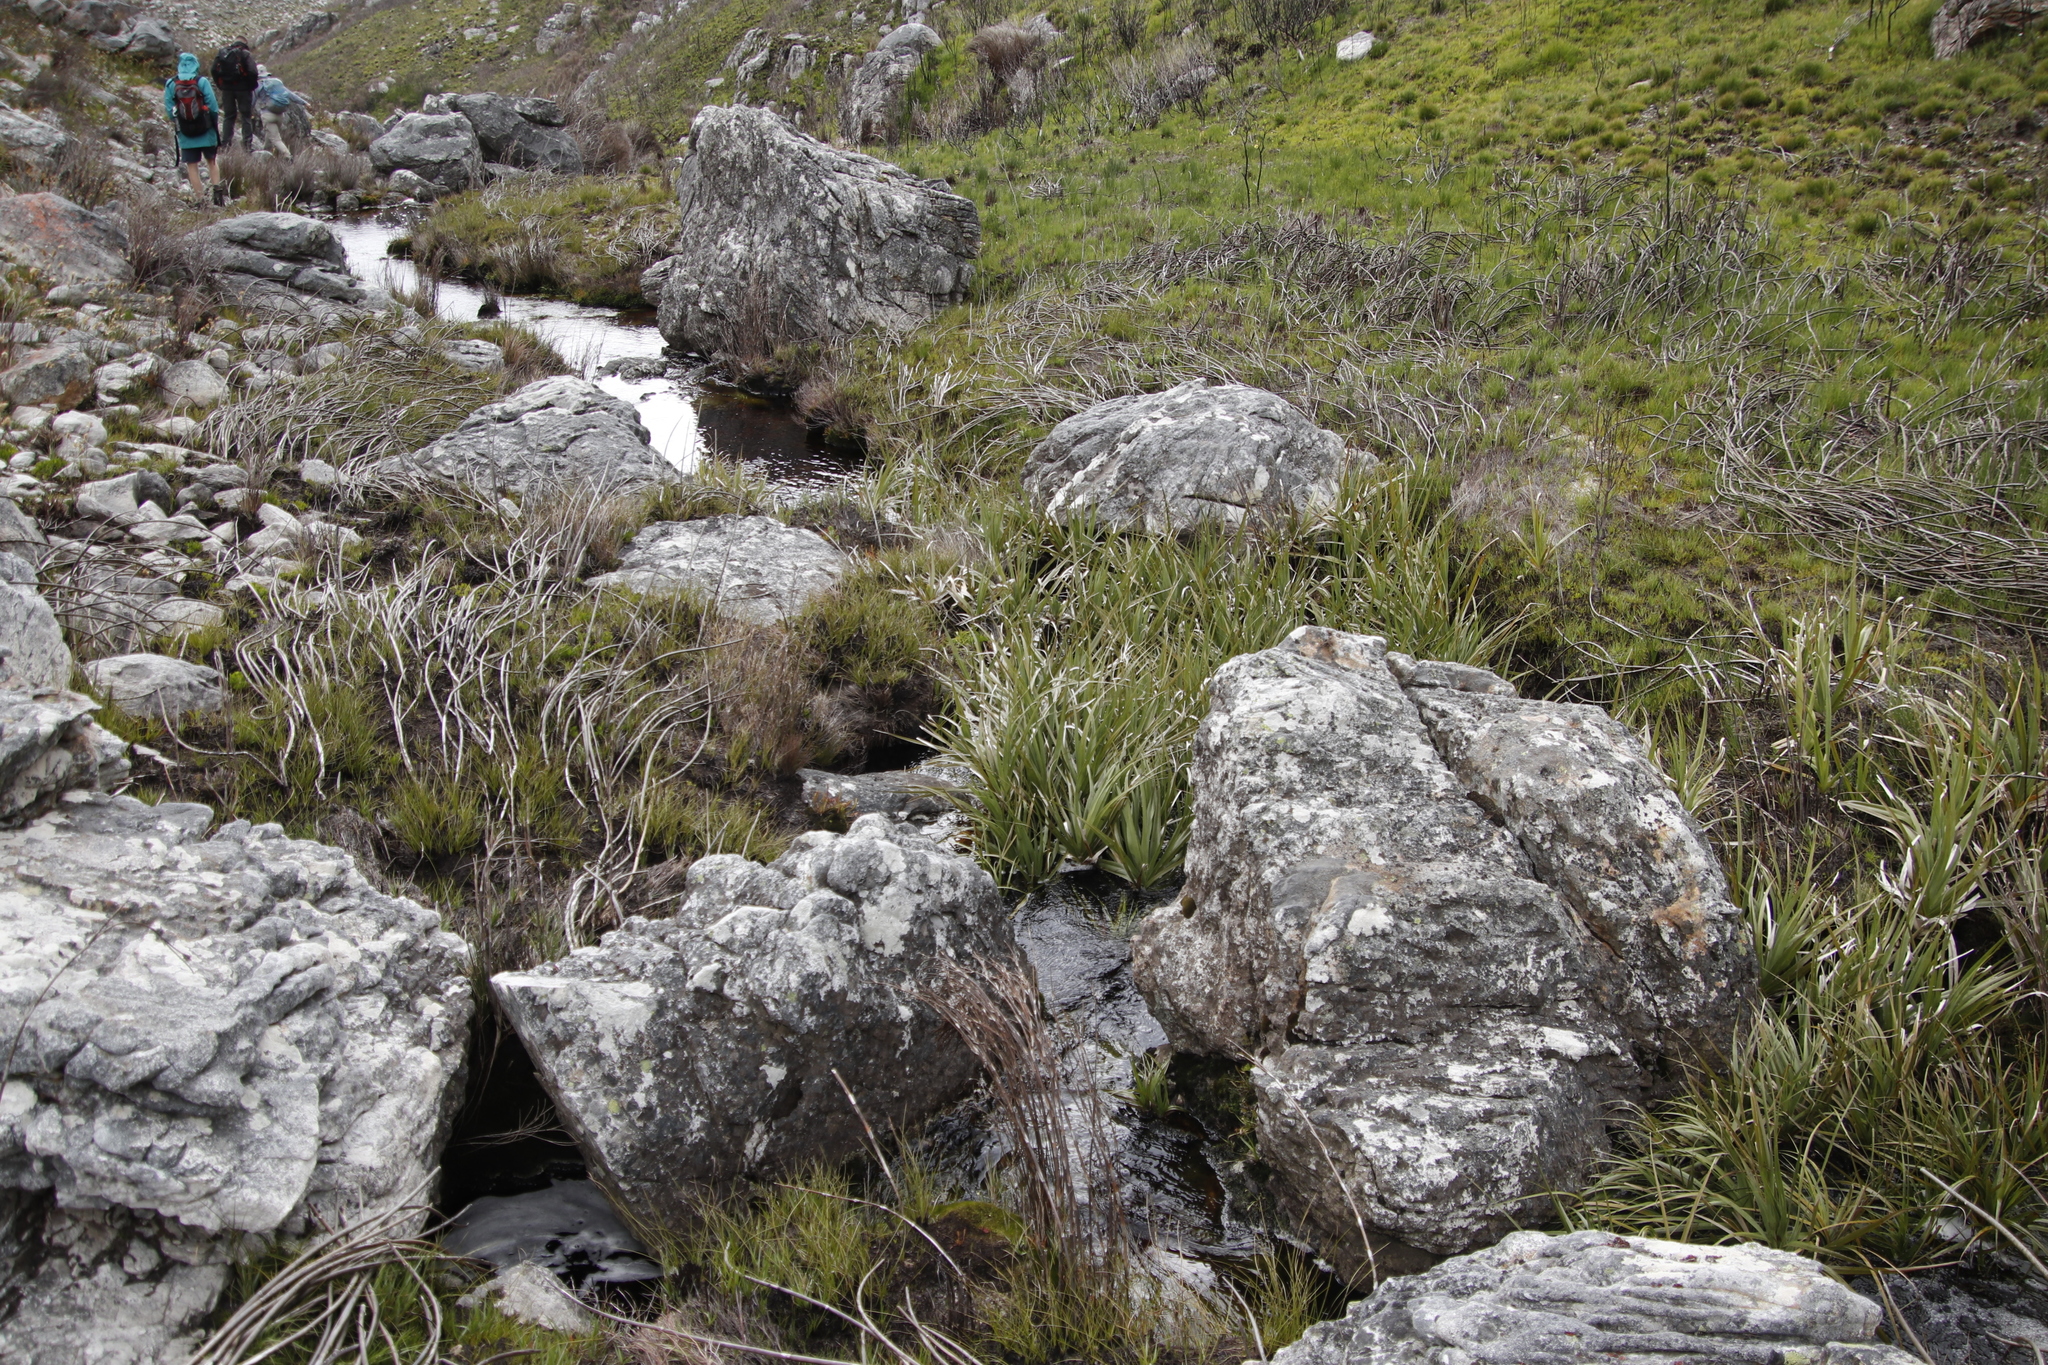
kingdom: Plantae
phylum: Tracheophyta
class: Liliopsida
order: Poales
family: Thurniaceae
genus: Prionium
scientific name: Prionium serratum
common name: Palmiet
